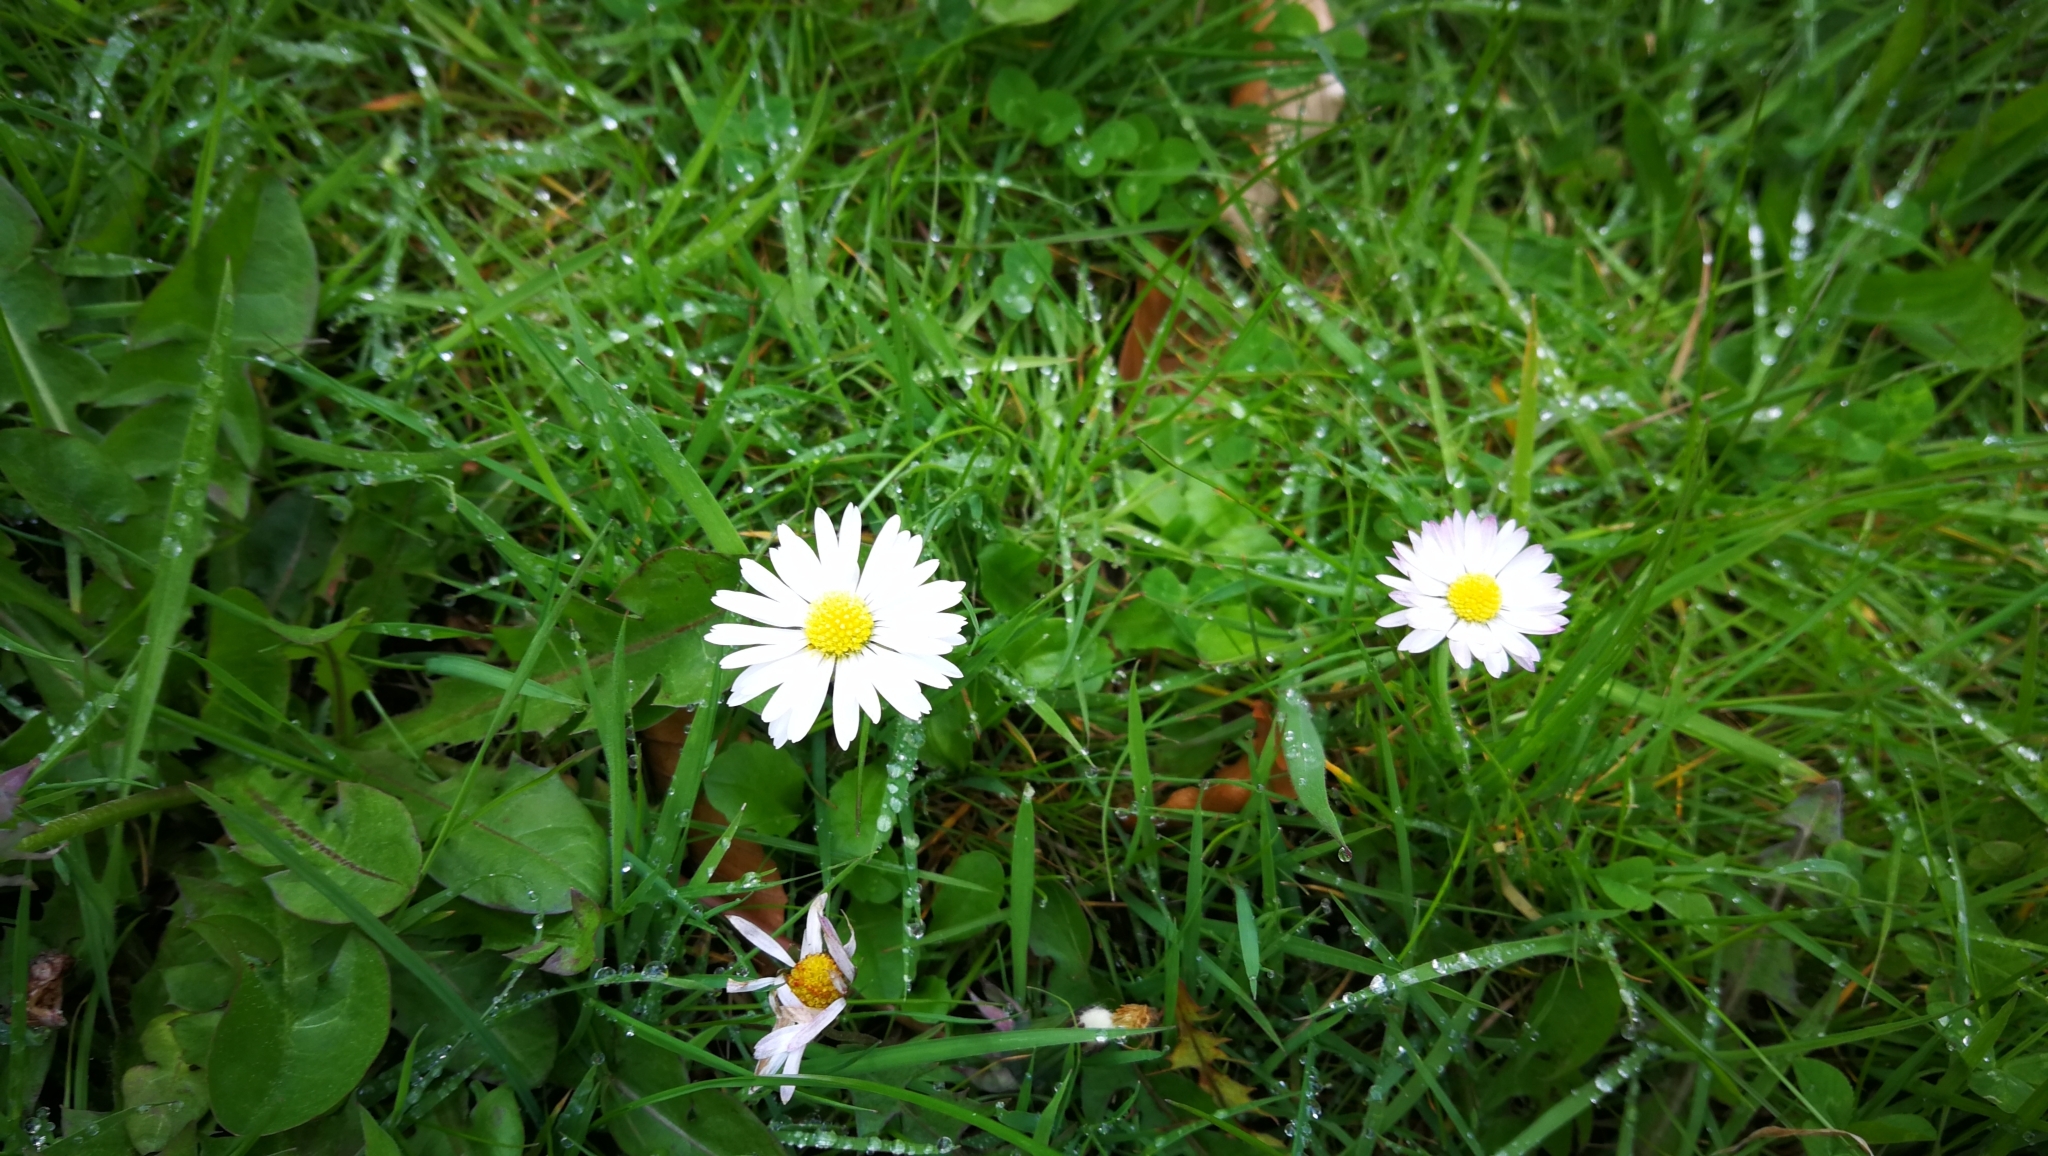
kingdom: Plantae
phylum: Tracheophyta
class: Magnoliopsida
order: Asterales
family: Asteraceae
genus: Bellis
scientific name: Bellis perennis
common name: Lawndaisy
